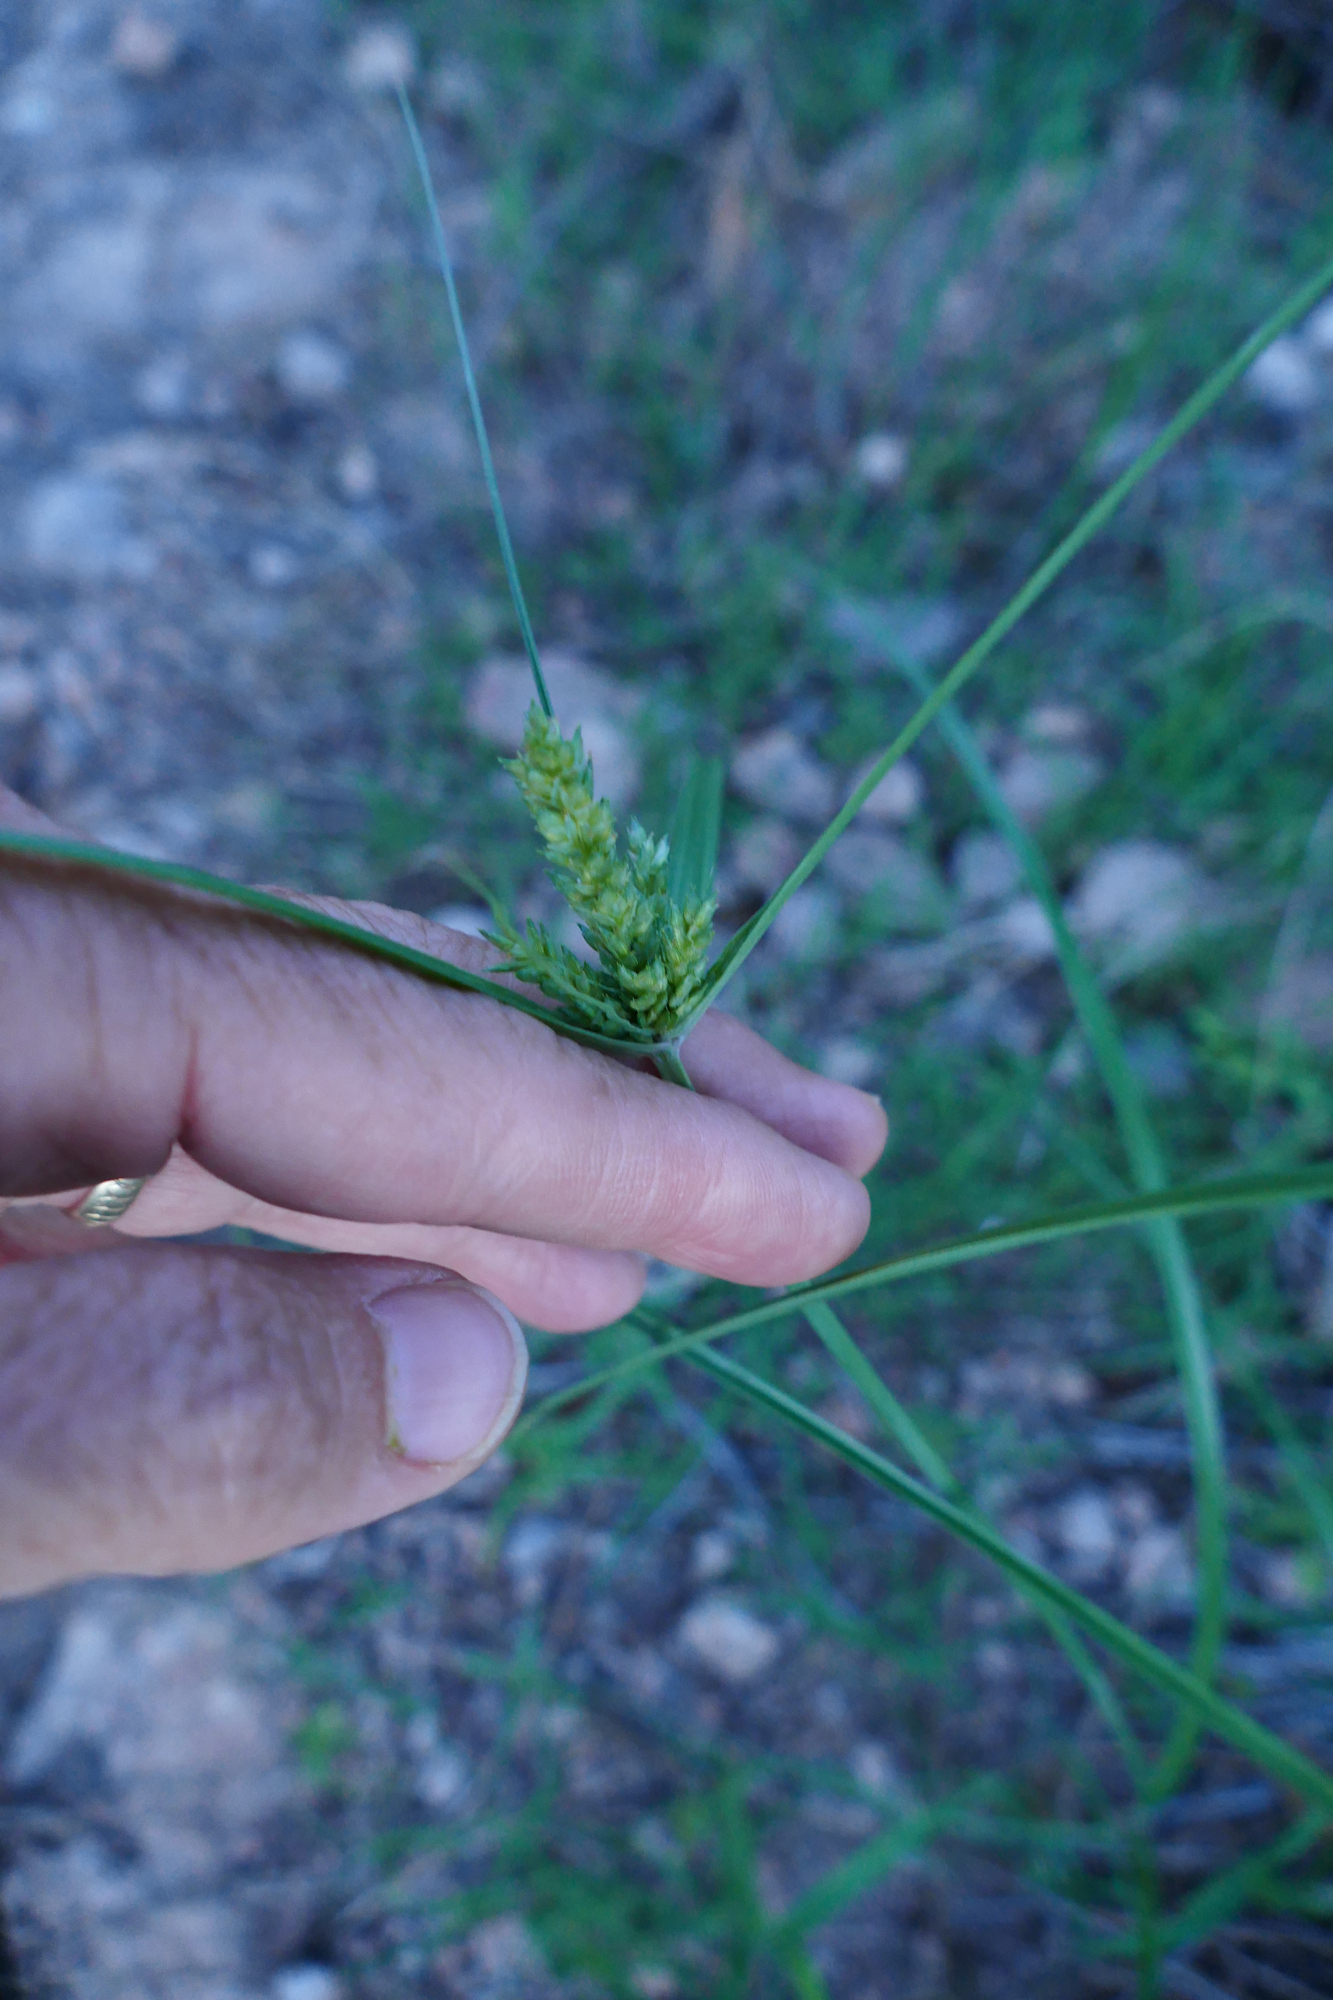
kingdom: Plantae
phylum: Tracheophyta
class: Liliopsida
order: Poales
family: Cyperaceae
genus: Cyperus
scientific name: Cyperus fendlerianus
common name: Fendler flat sedge
